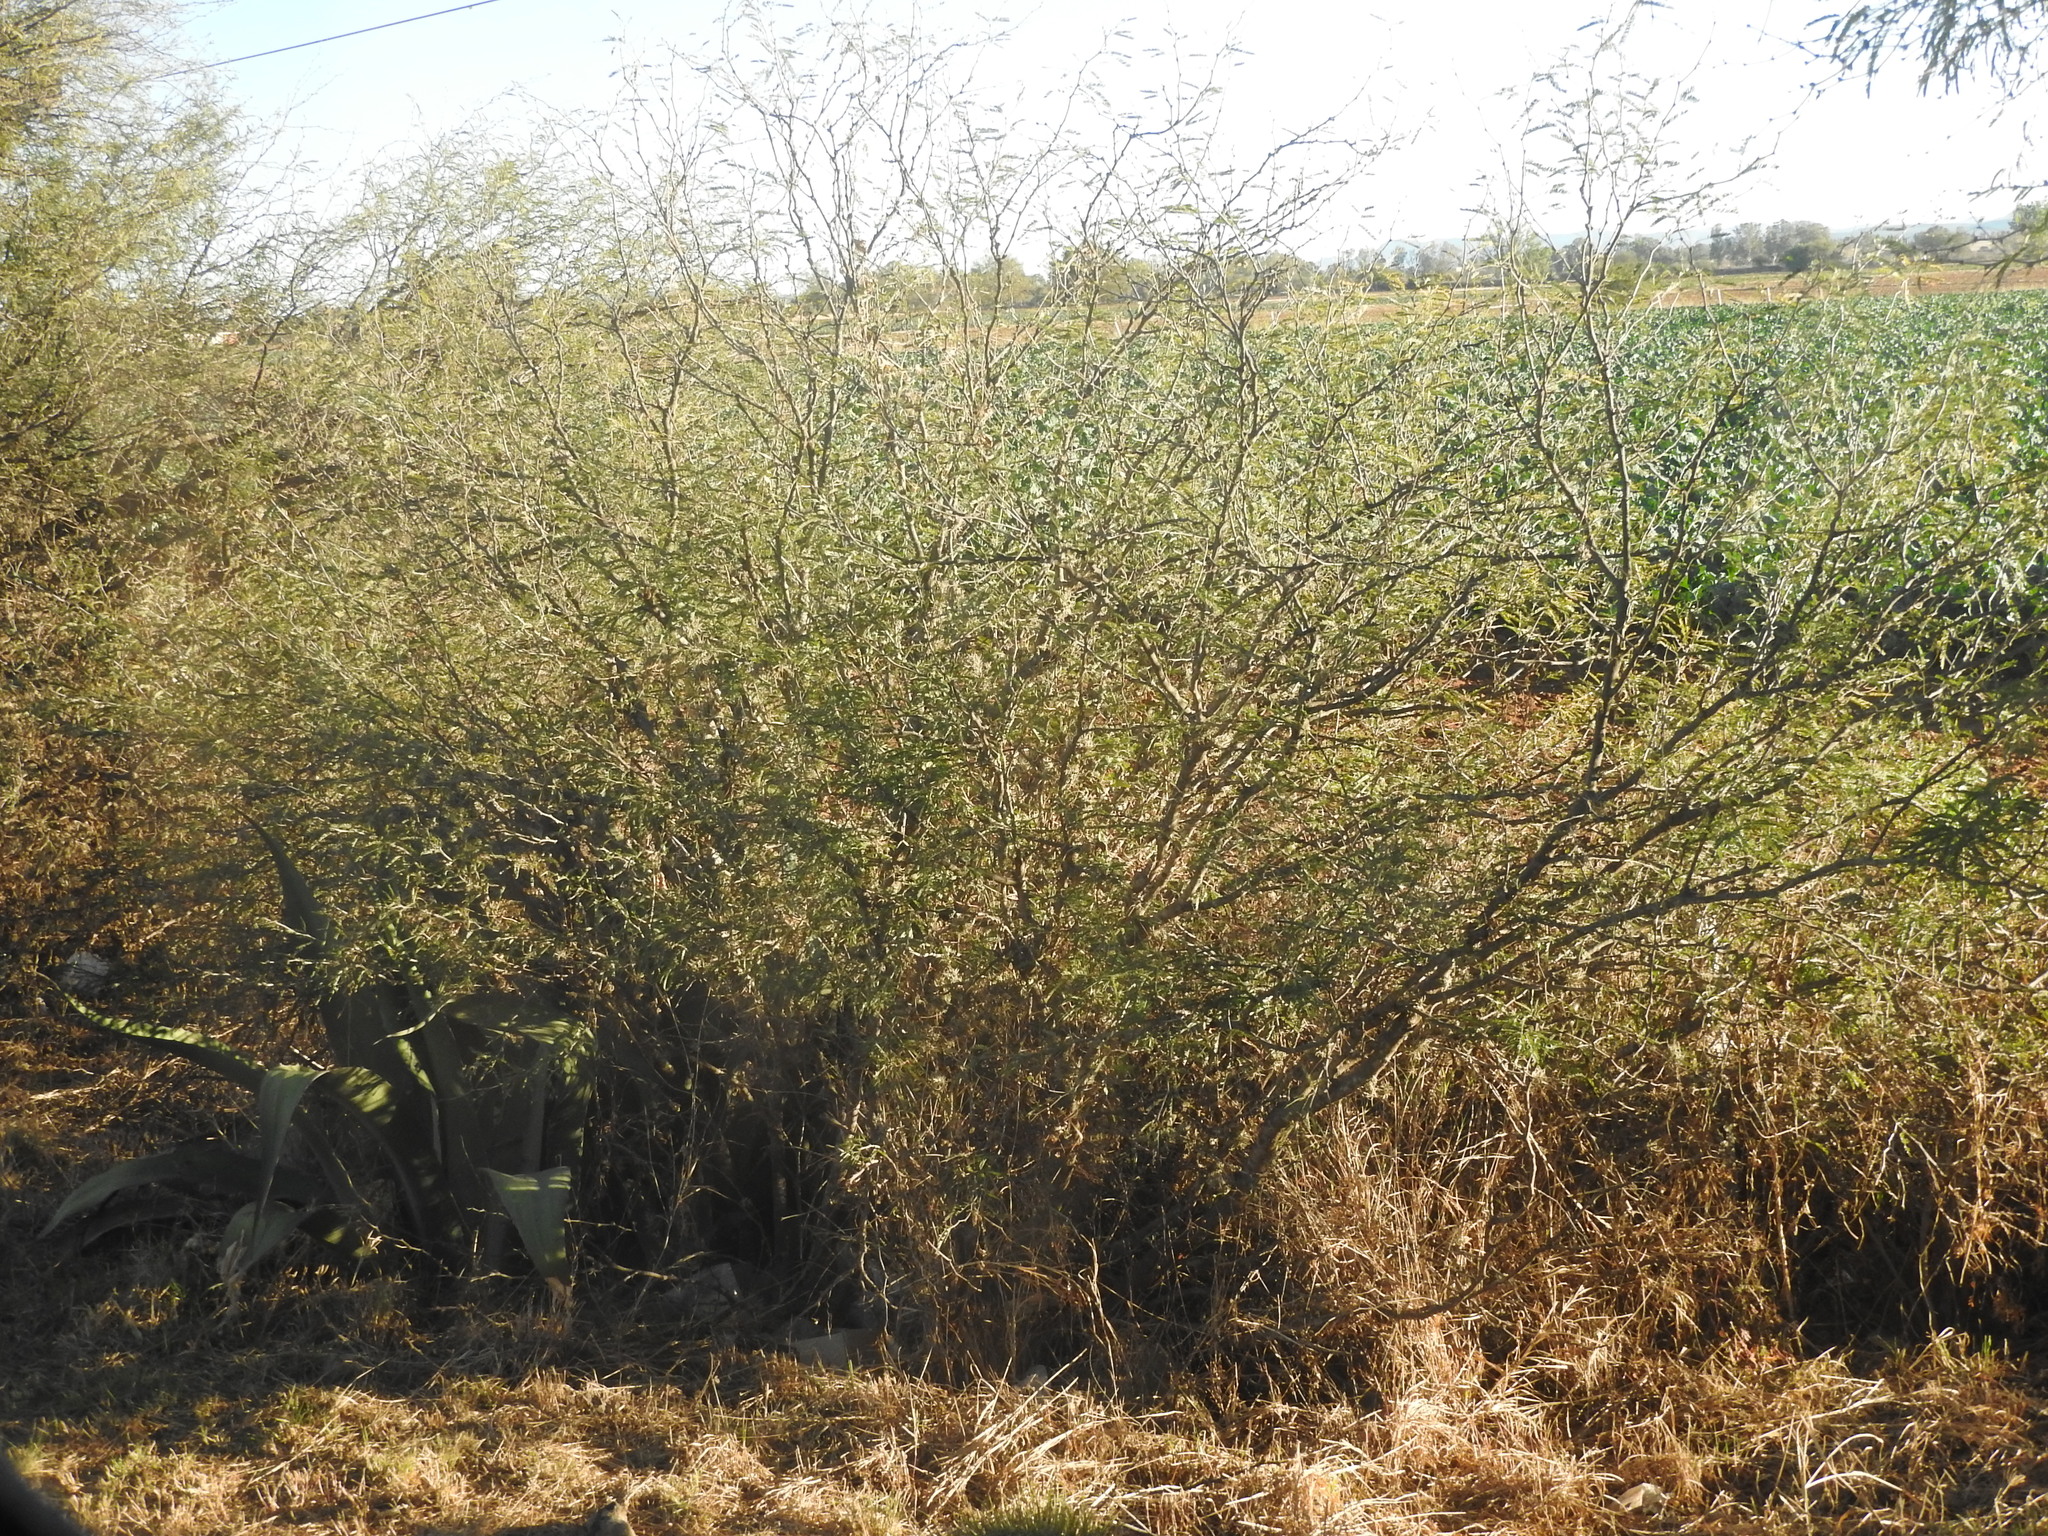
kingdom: Plantae
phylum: Tracheophyta
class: Magnoliopsida
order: Fabales
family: Fabaceae
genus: Vachellia
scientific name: Vachellia farnesiana
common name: Sweet acacia
